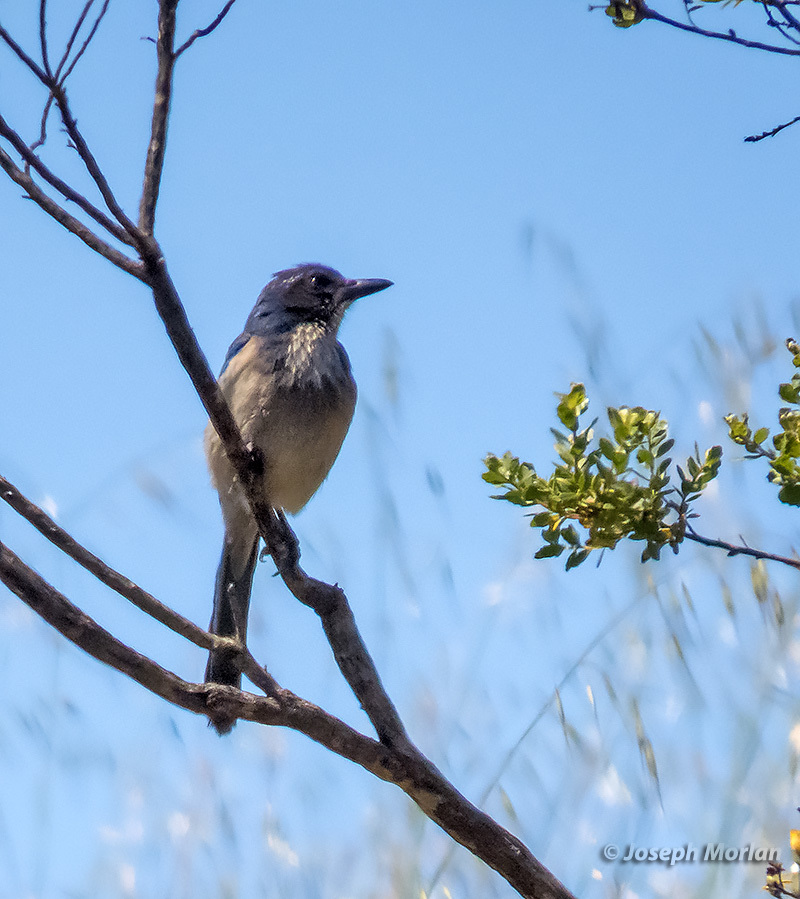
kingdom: Animalia
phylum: Chordata
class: Aves
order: Passeriformes
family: Corvidae
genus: Aphelocoma
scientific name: Aphelocoma californica
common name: California scrub-jay
